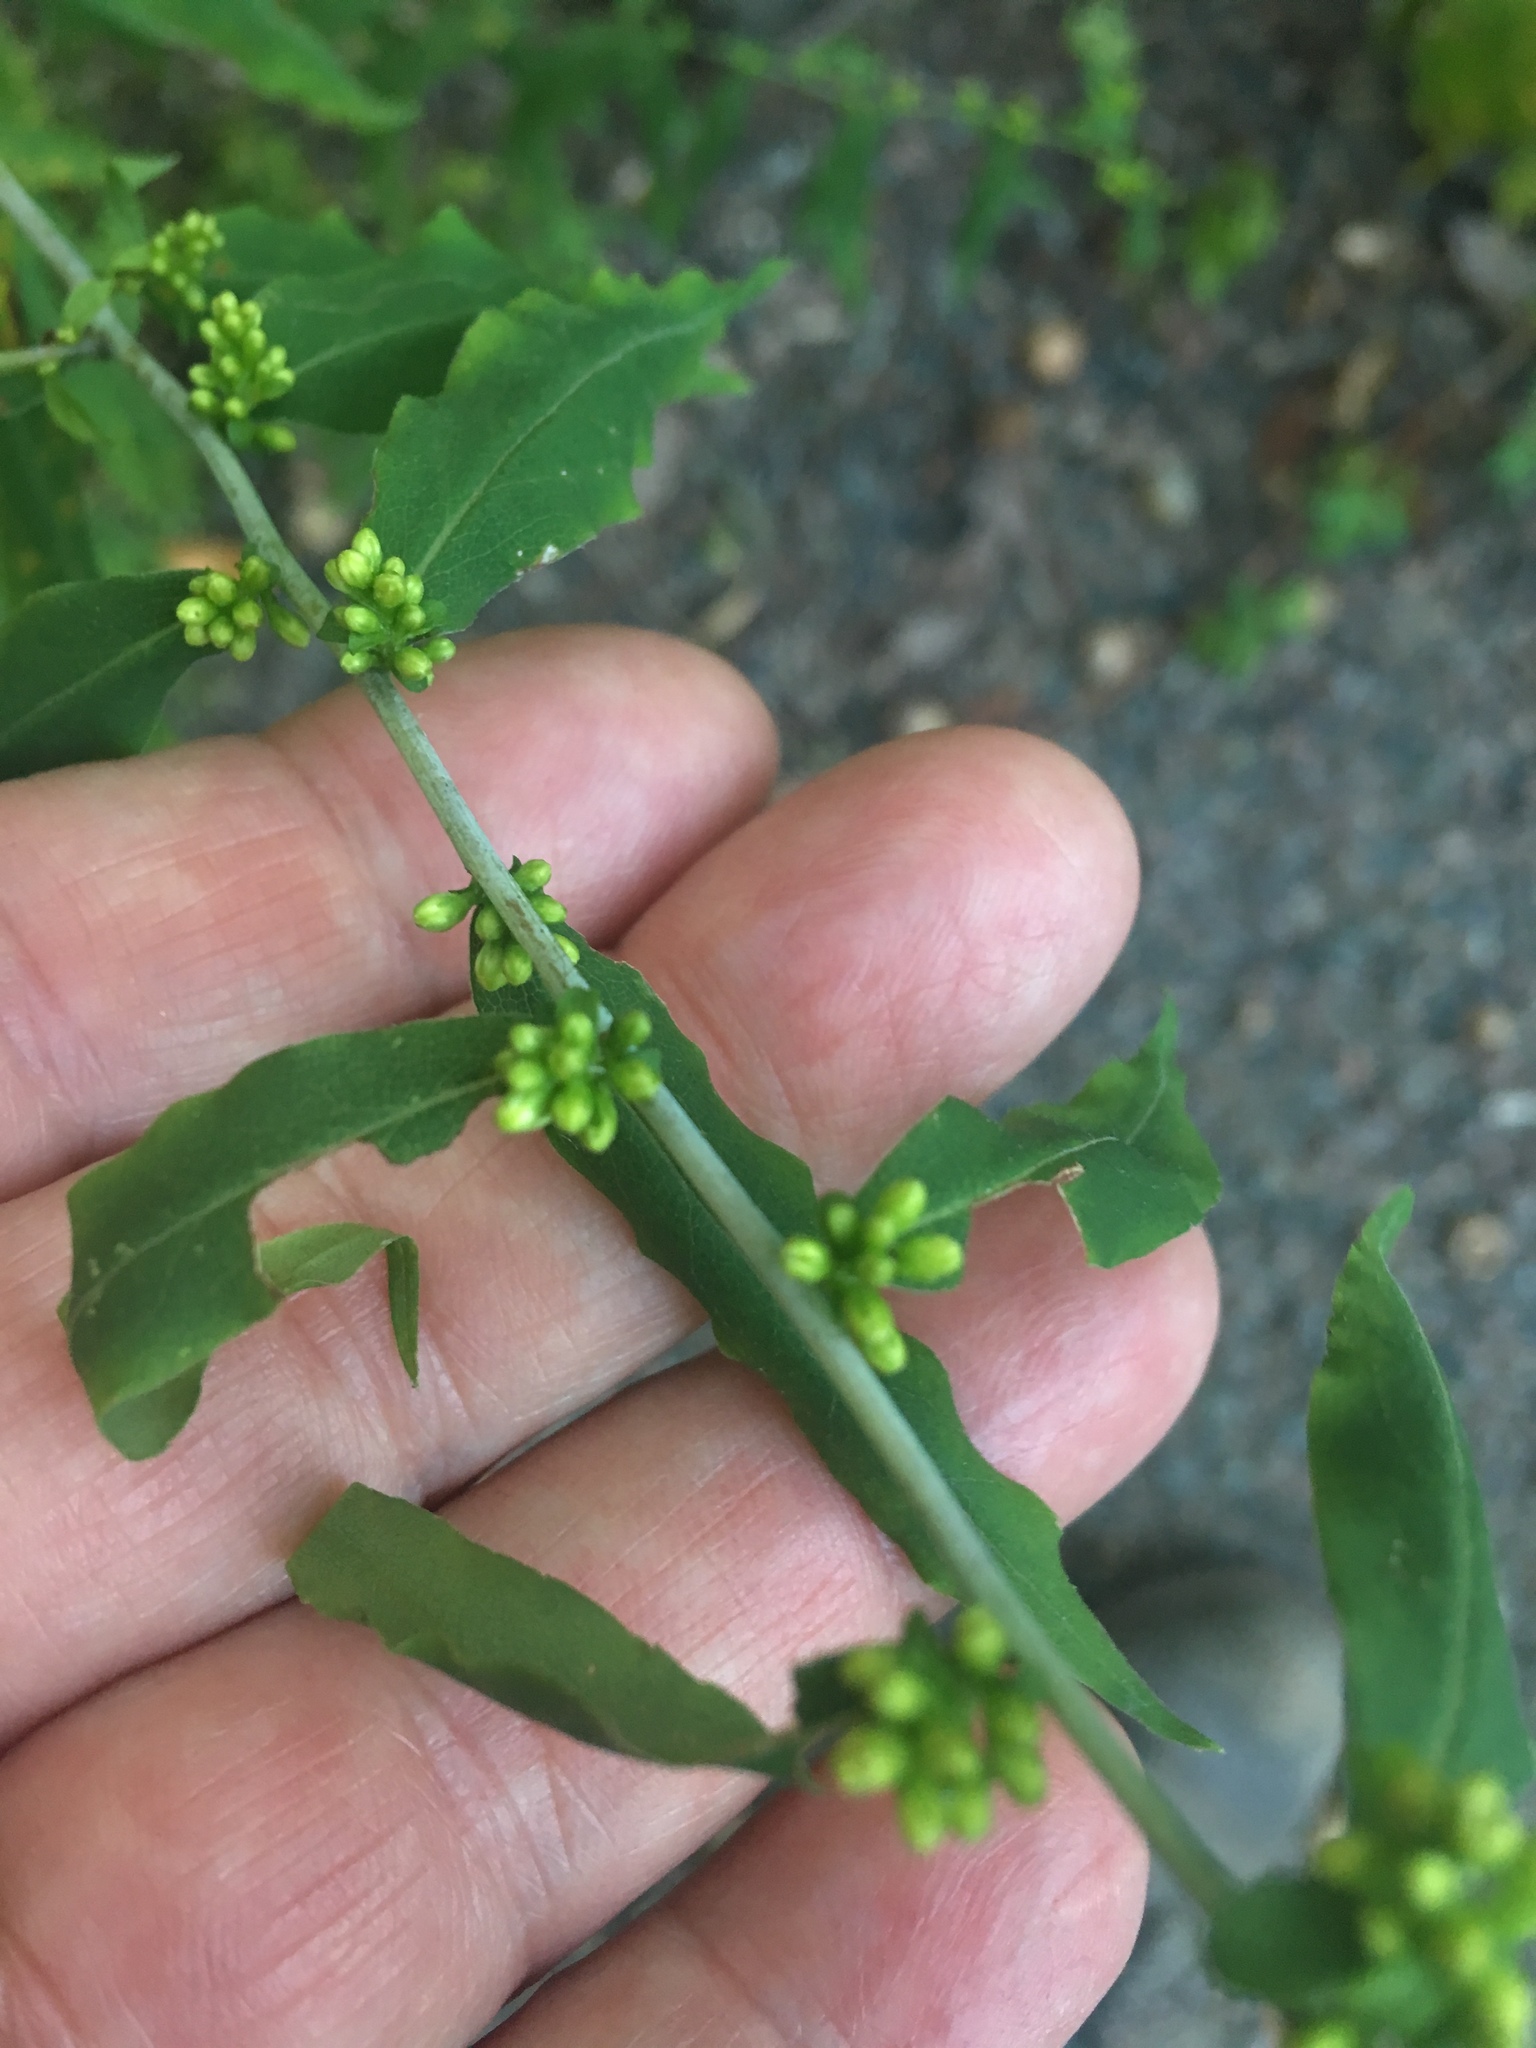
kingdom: Plantae
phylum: Tracheophyta
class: Magnoliopsida
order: Asterales
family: Asteraceae
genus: Solidago
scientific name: Solidago caesia
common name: Woodland goldenrod
